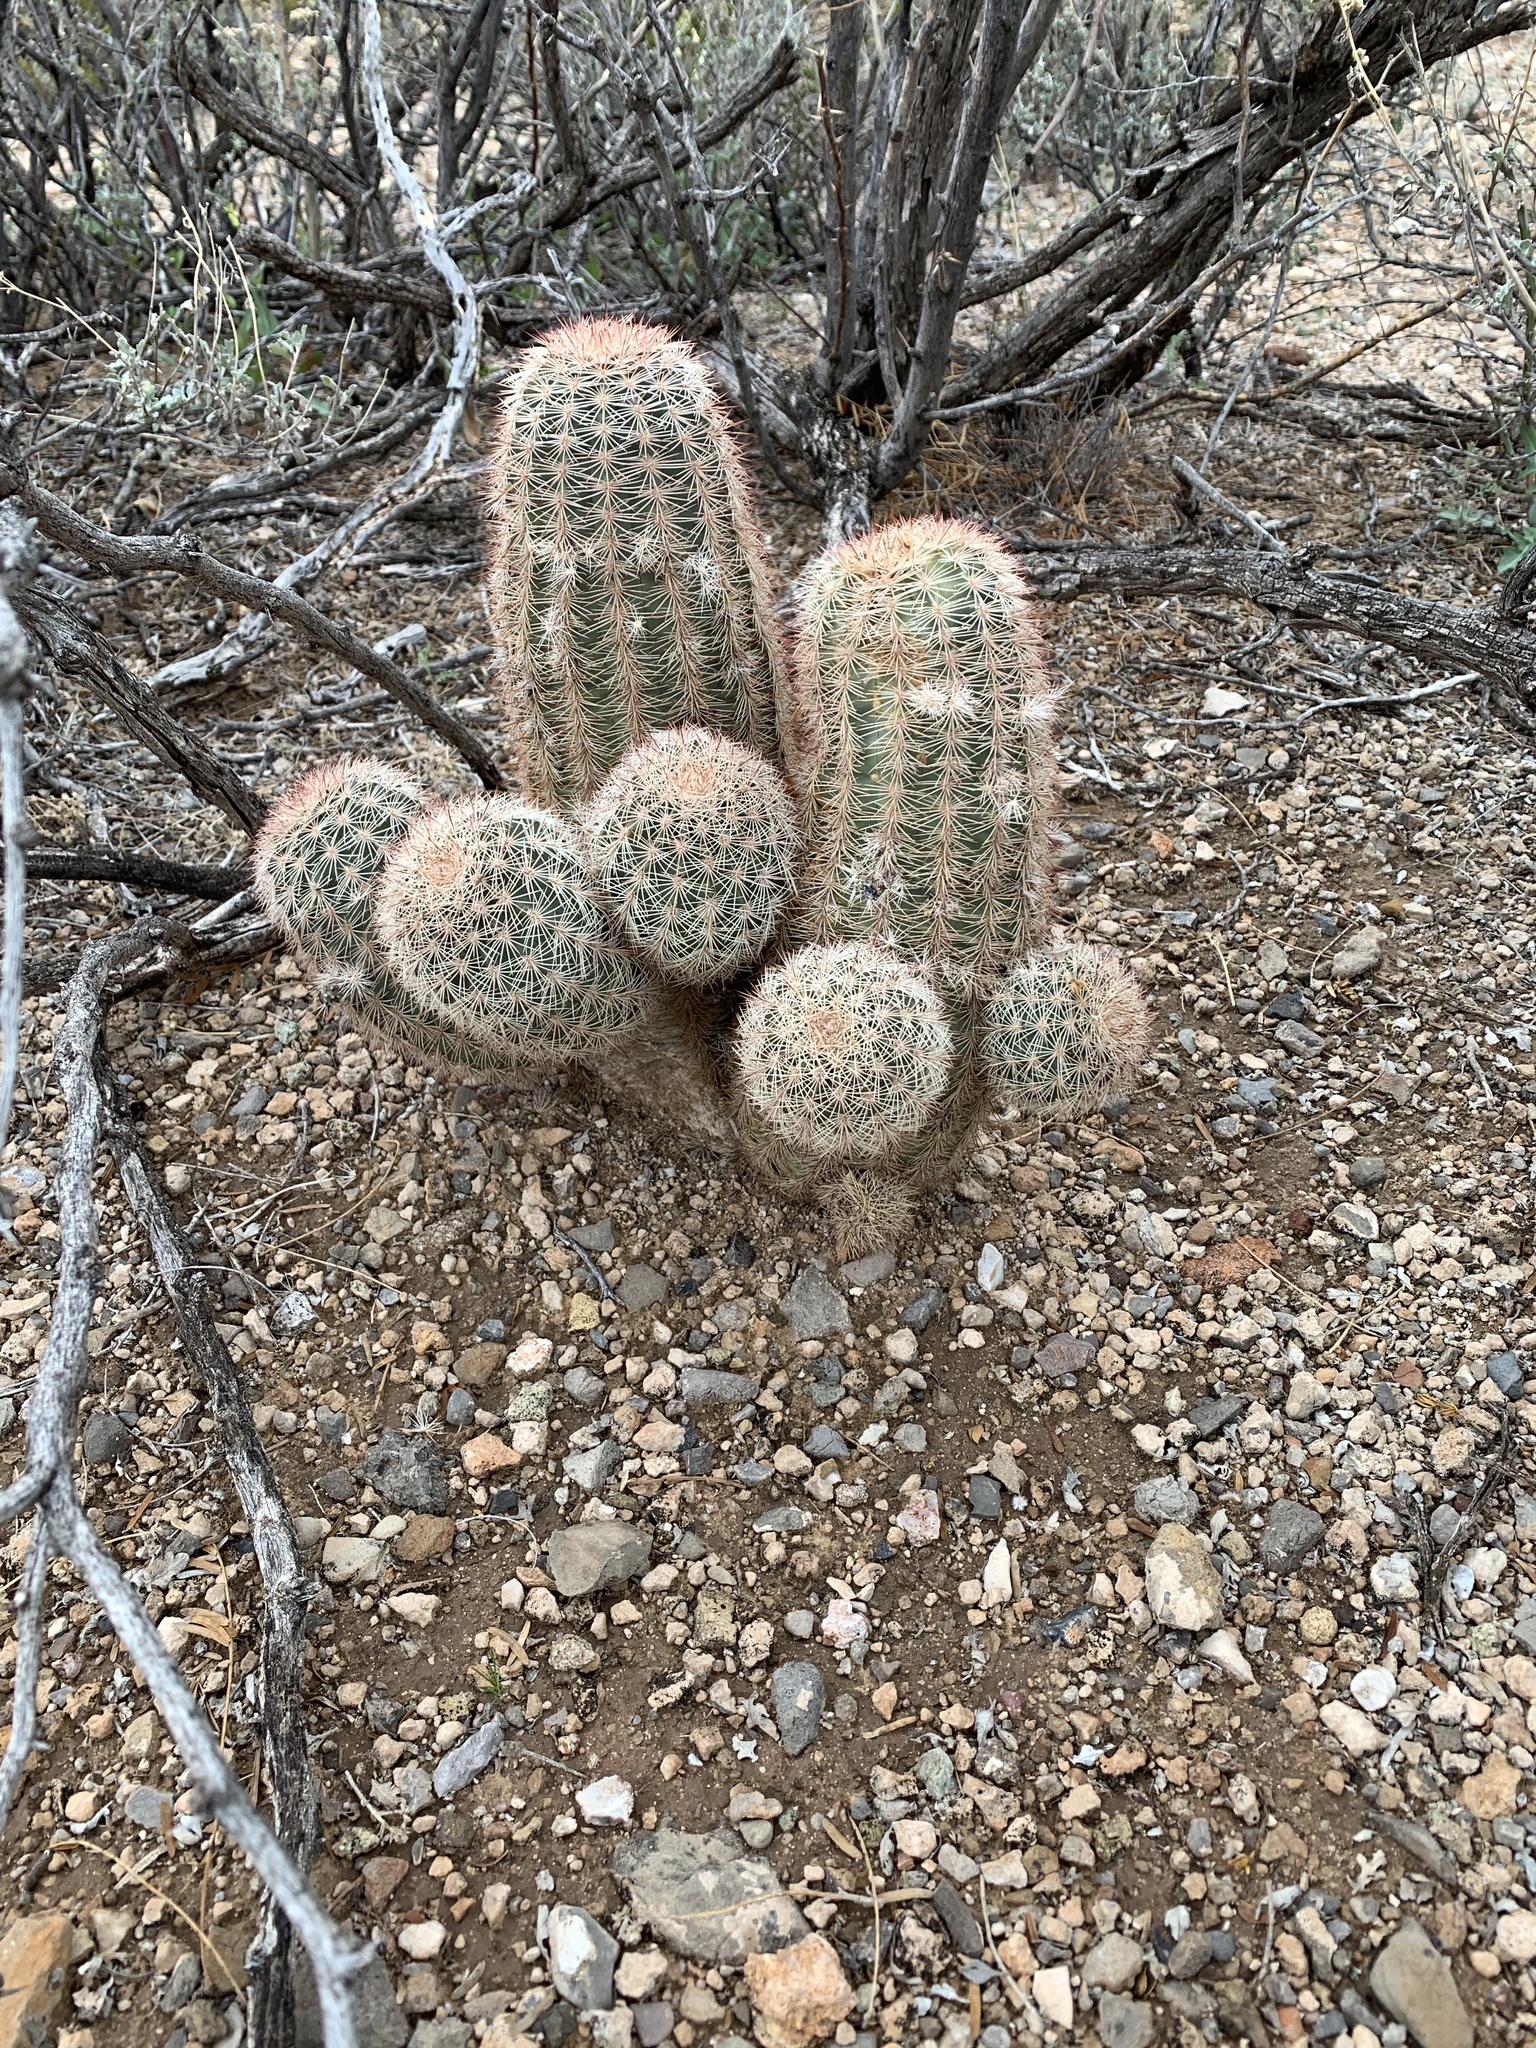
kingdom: Plantae
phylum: Tracheophyta
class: Magnoliopsida
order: Caryophyllales
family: Cactaceae
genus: Echinocereus
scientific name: Echinocereus dasyacanthus
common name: Spiny hedgehog cactus
